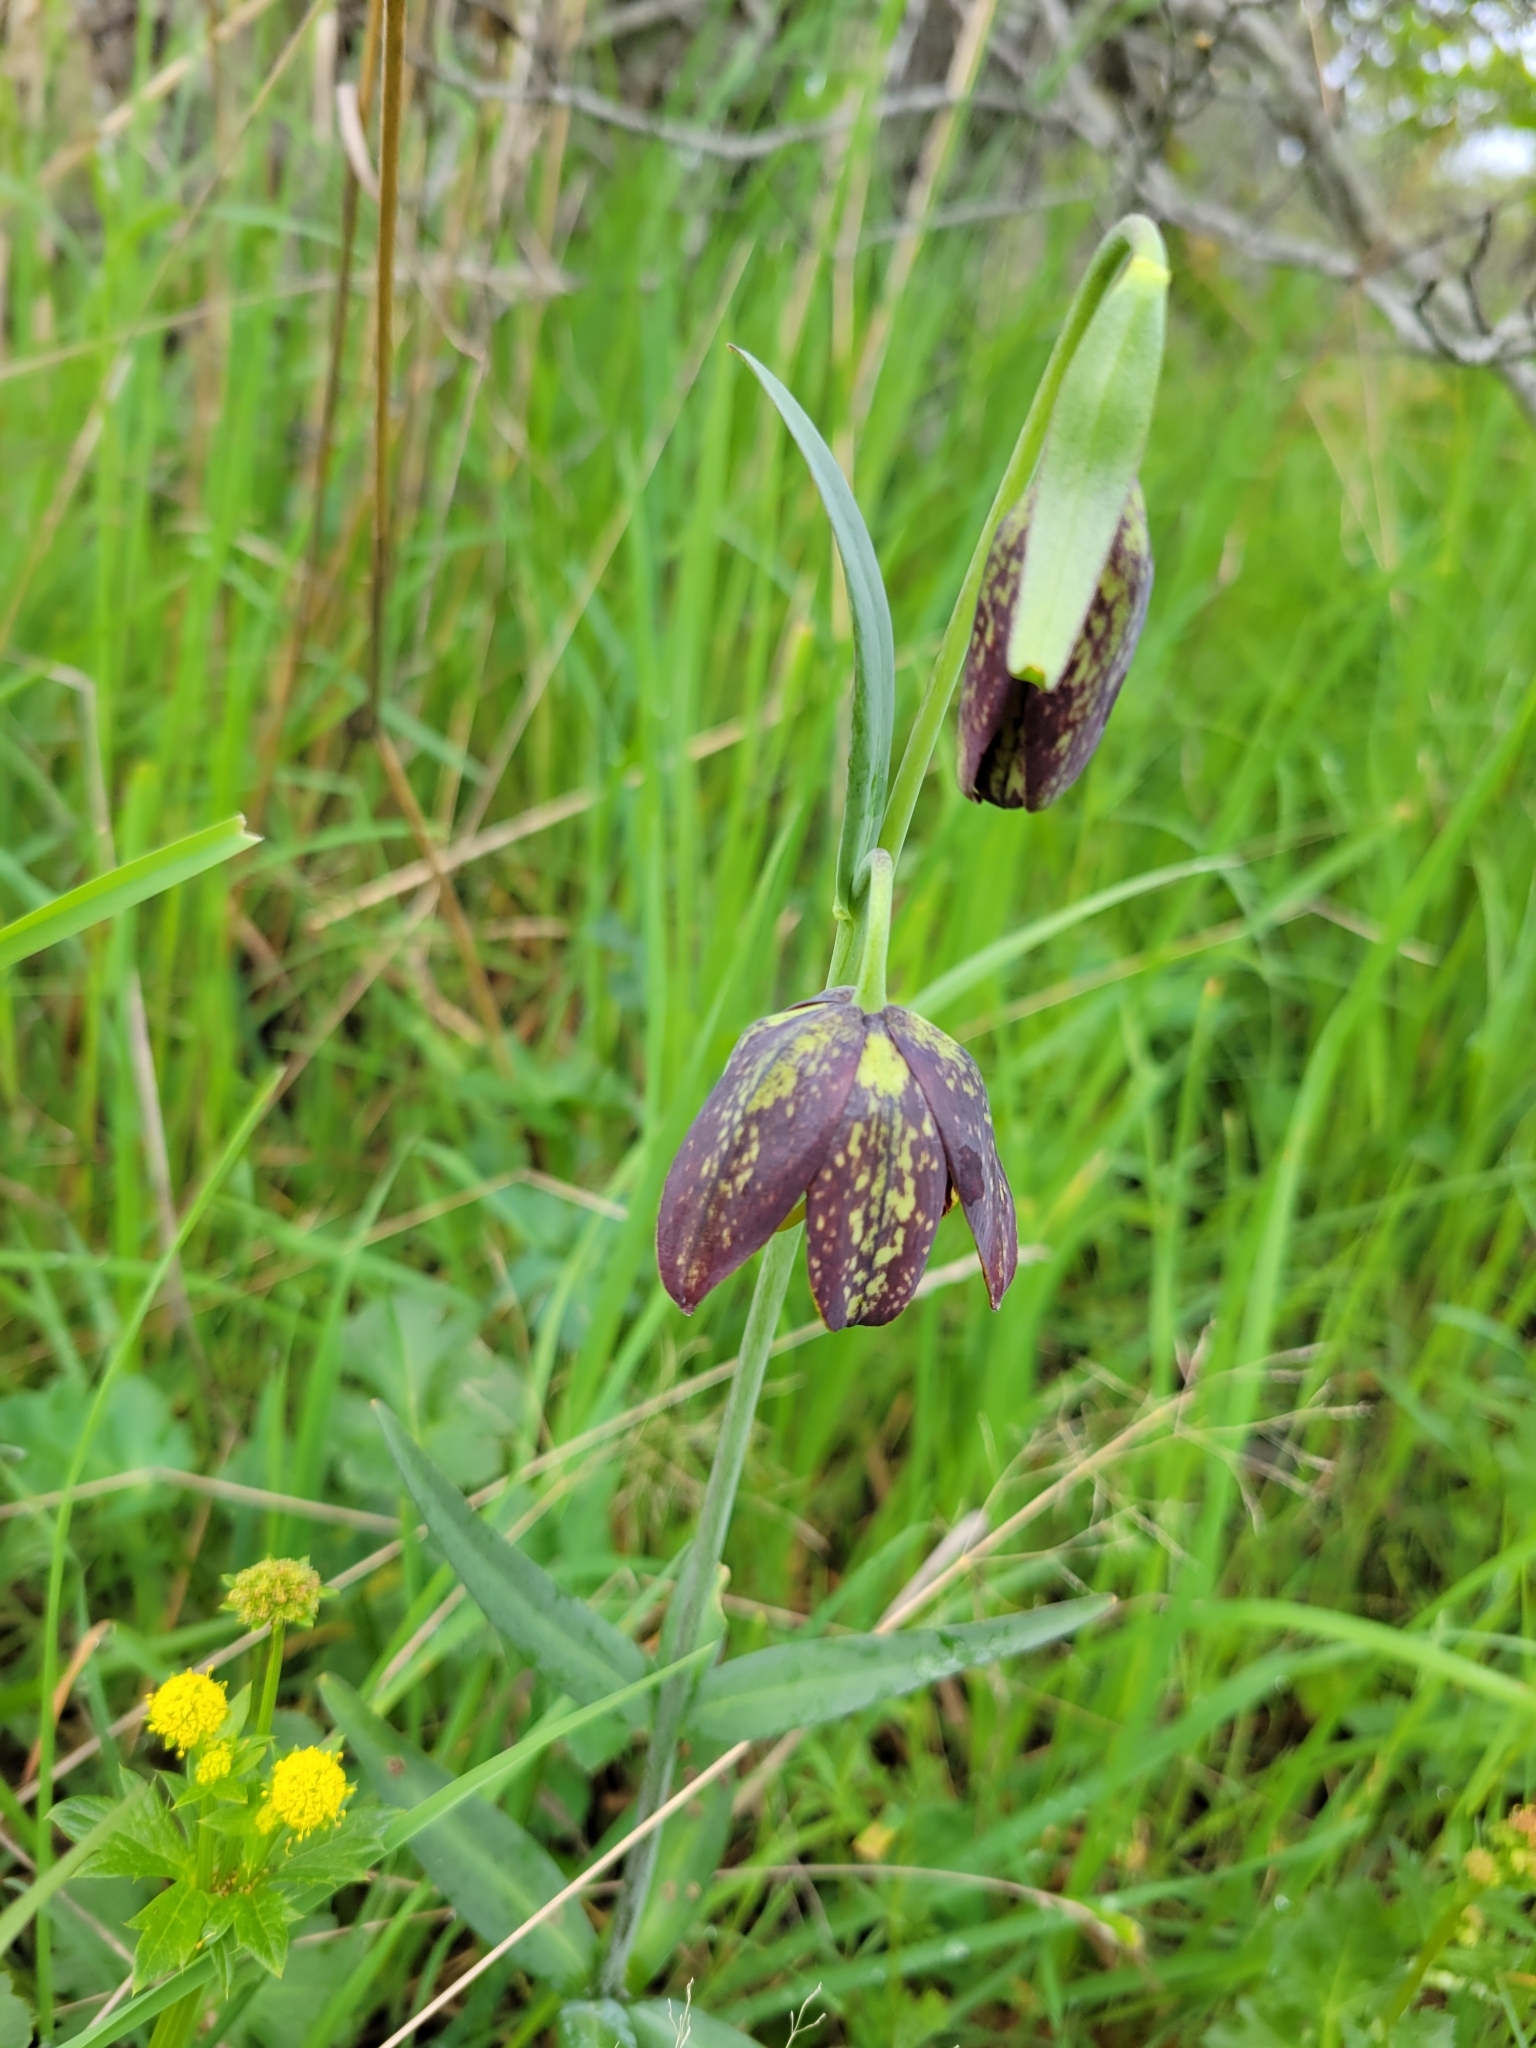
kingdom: Plantae
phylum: Tracheophyta
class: Liliopsida
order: Liliales
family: Liliaceae
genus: Fritillaria
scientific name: Fritillaria affinis
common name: Ojai fritillary
